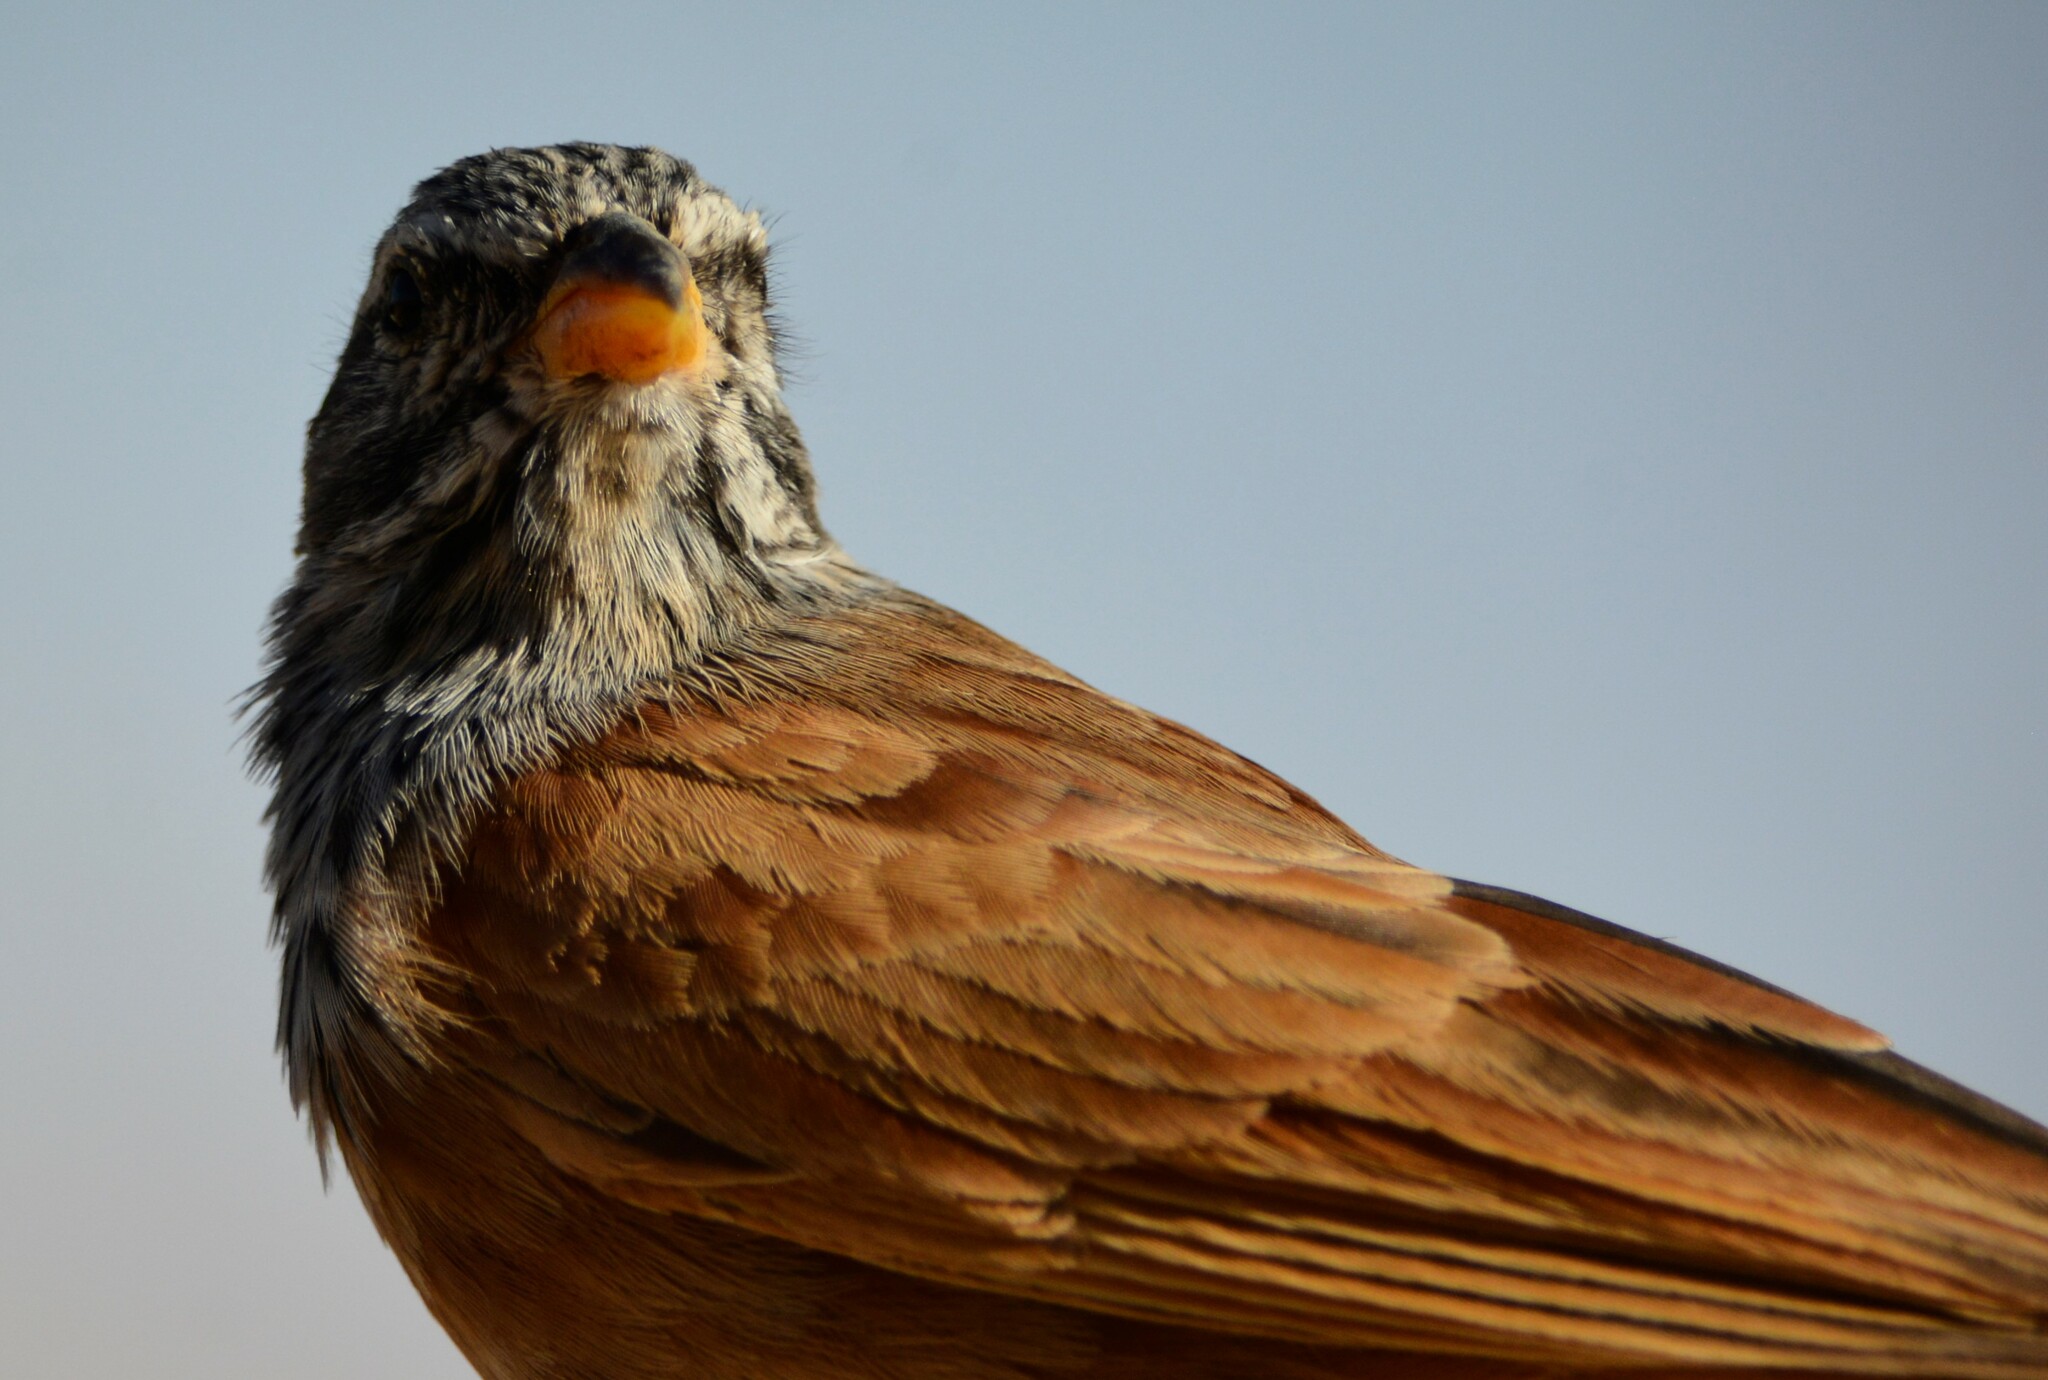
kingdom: Animalia
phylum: Chordata
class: Aves
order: Passeriformes
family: Emberizidae
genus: Emberiza
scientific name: Emberiza sahari
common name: House bunting
